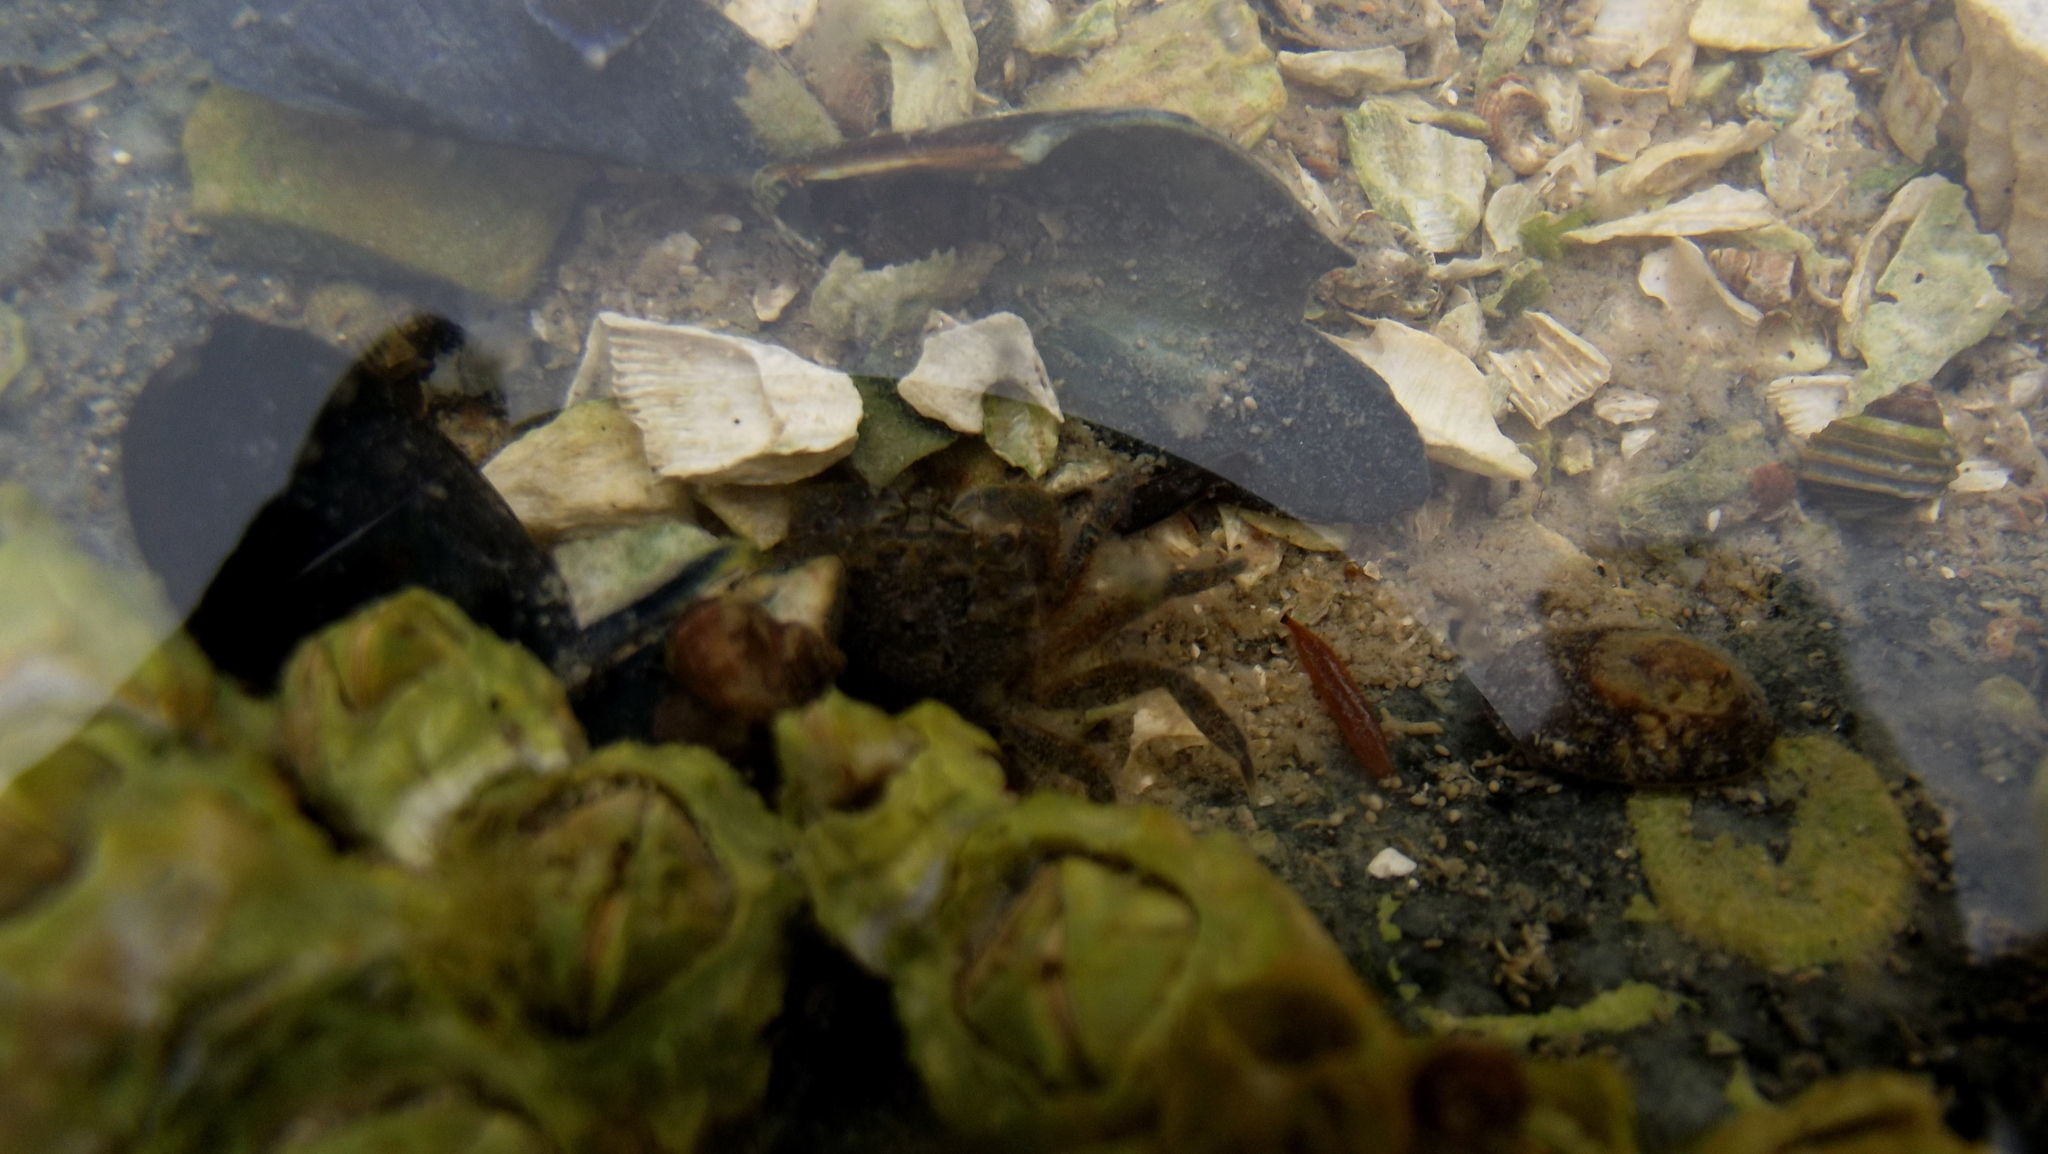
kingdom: Animalia
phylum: Arthropoda
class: Malacostraca
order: Decapoda
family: Varunidae
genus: Hemigrapsus
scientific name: Hemigrapsus oregonensis
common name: Yellow shore crab
